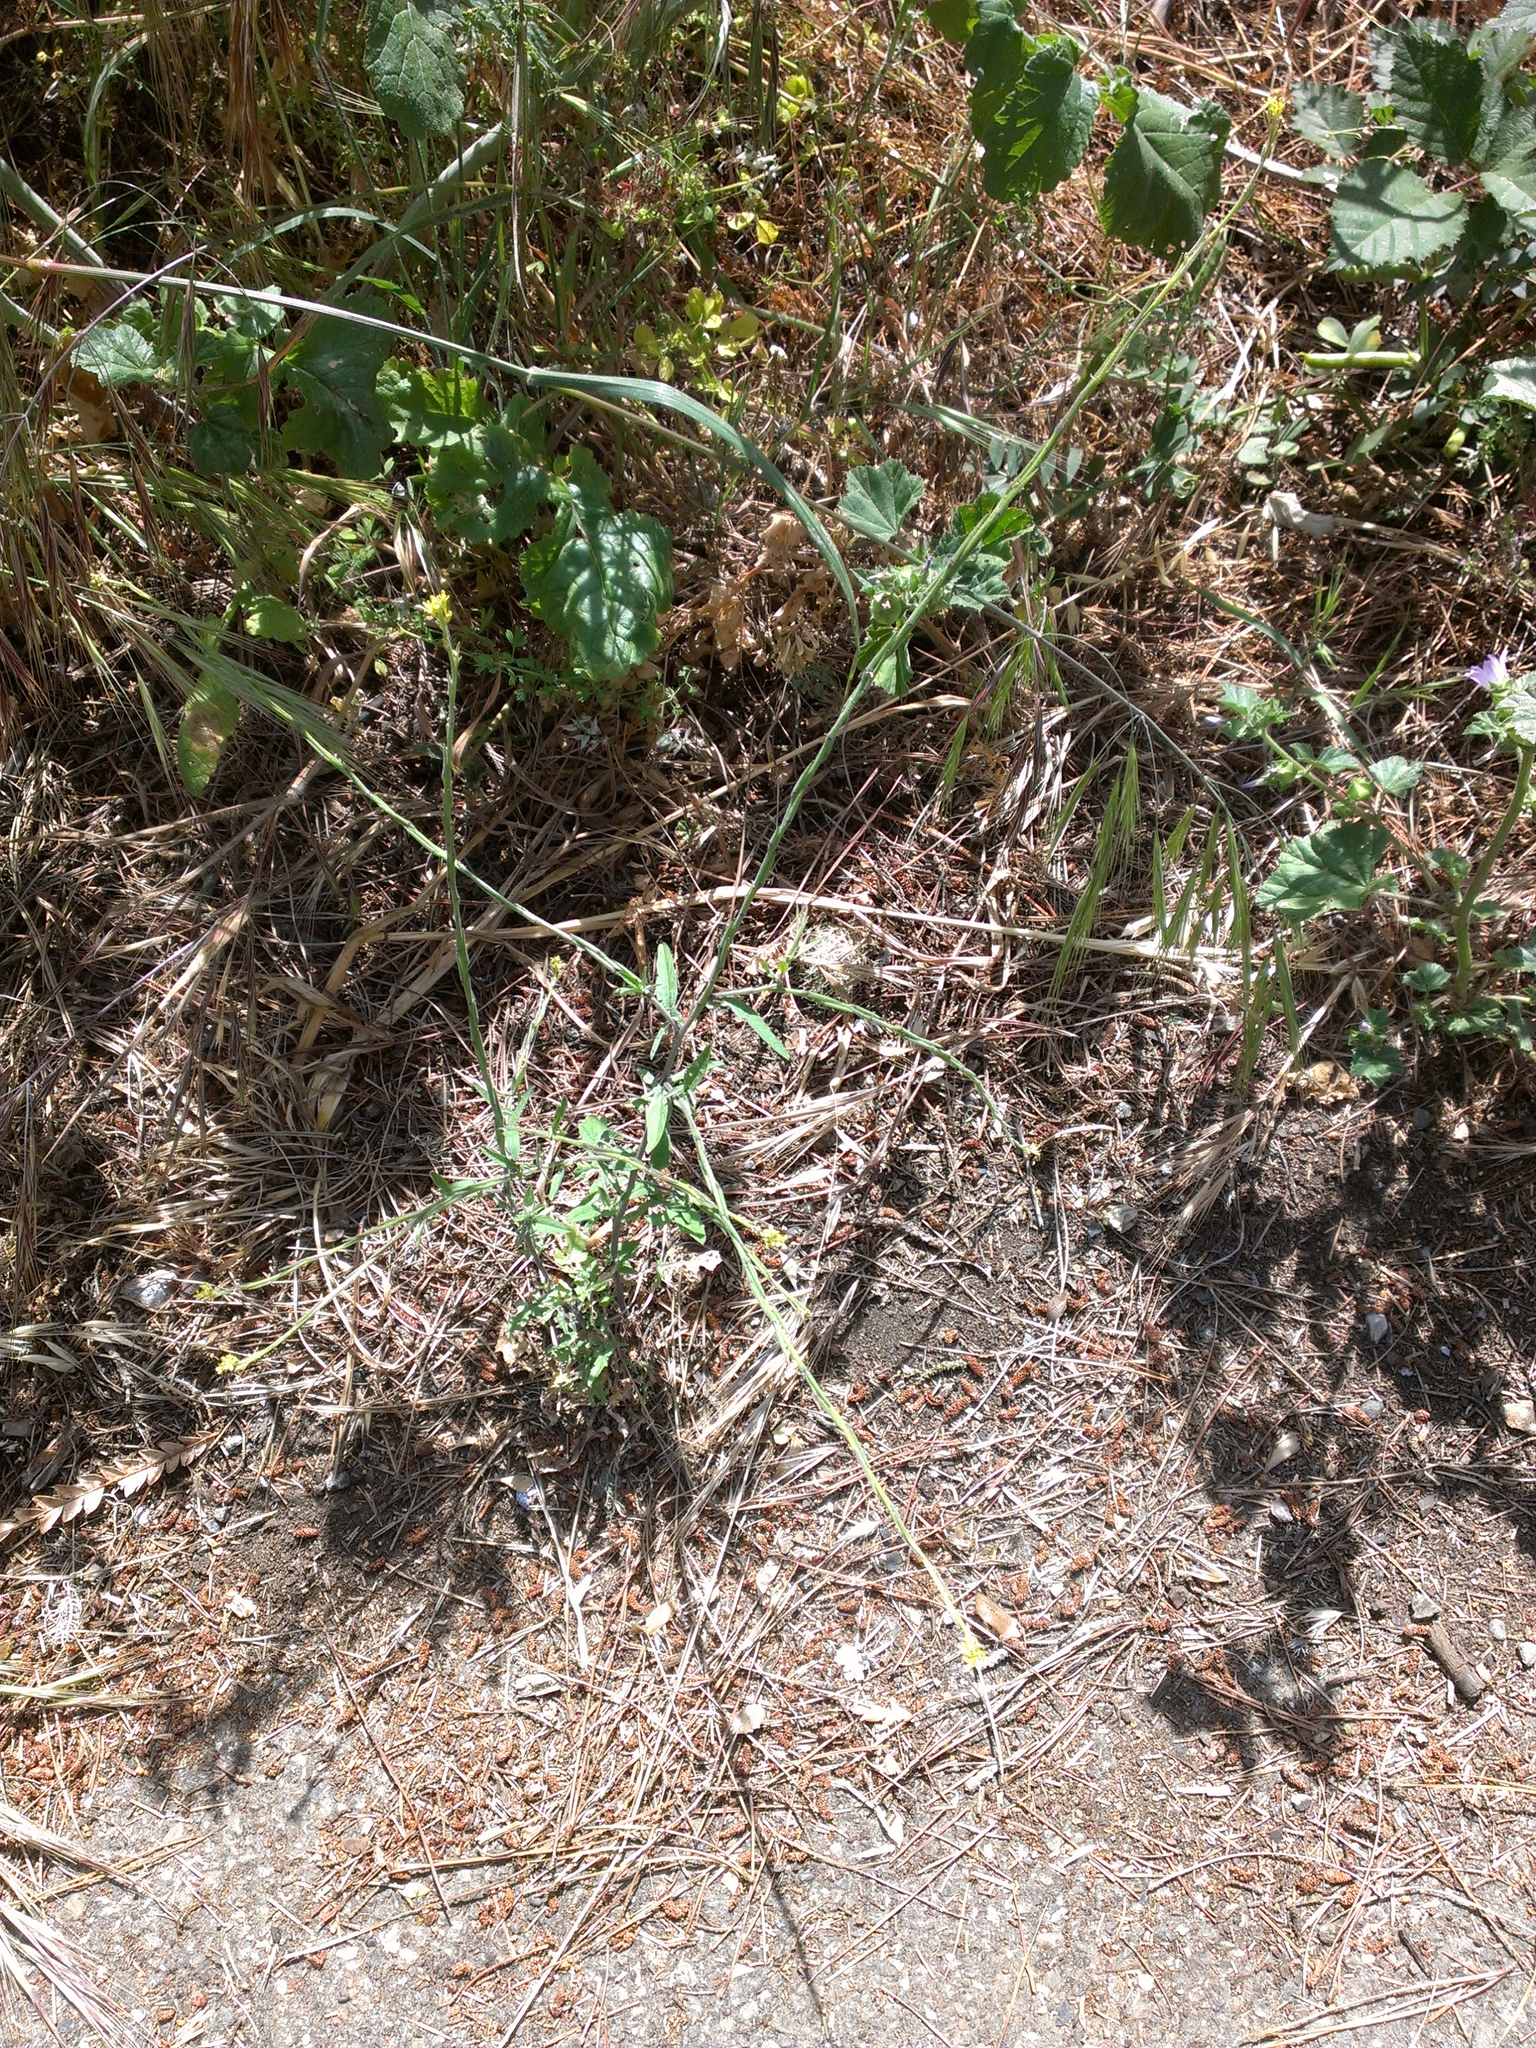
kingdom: Plantae
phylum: Tracheophyta
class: Magnoliopsida
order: Brassicales
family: Brassicaceae
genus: Hirschfeldia
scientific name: Hirschfeldia incana
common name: Hoary mustard
